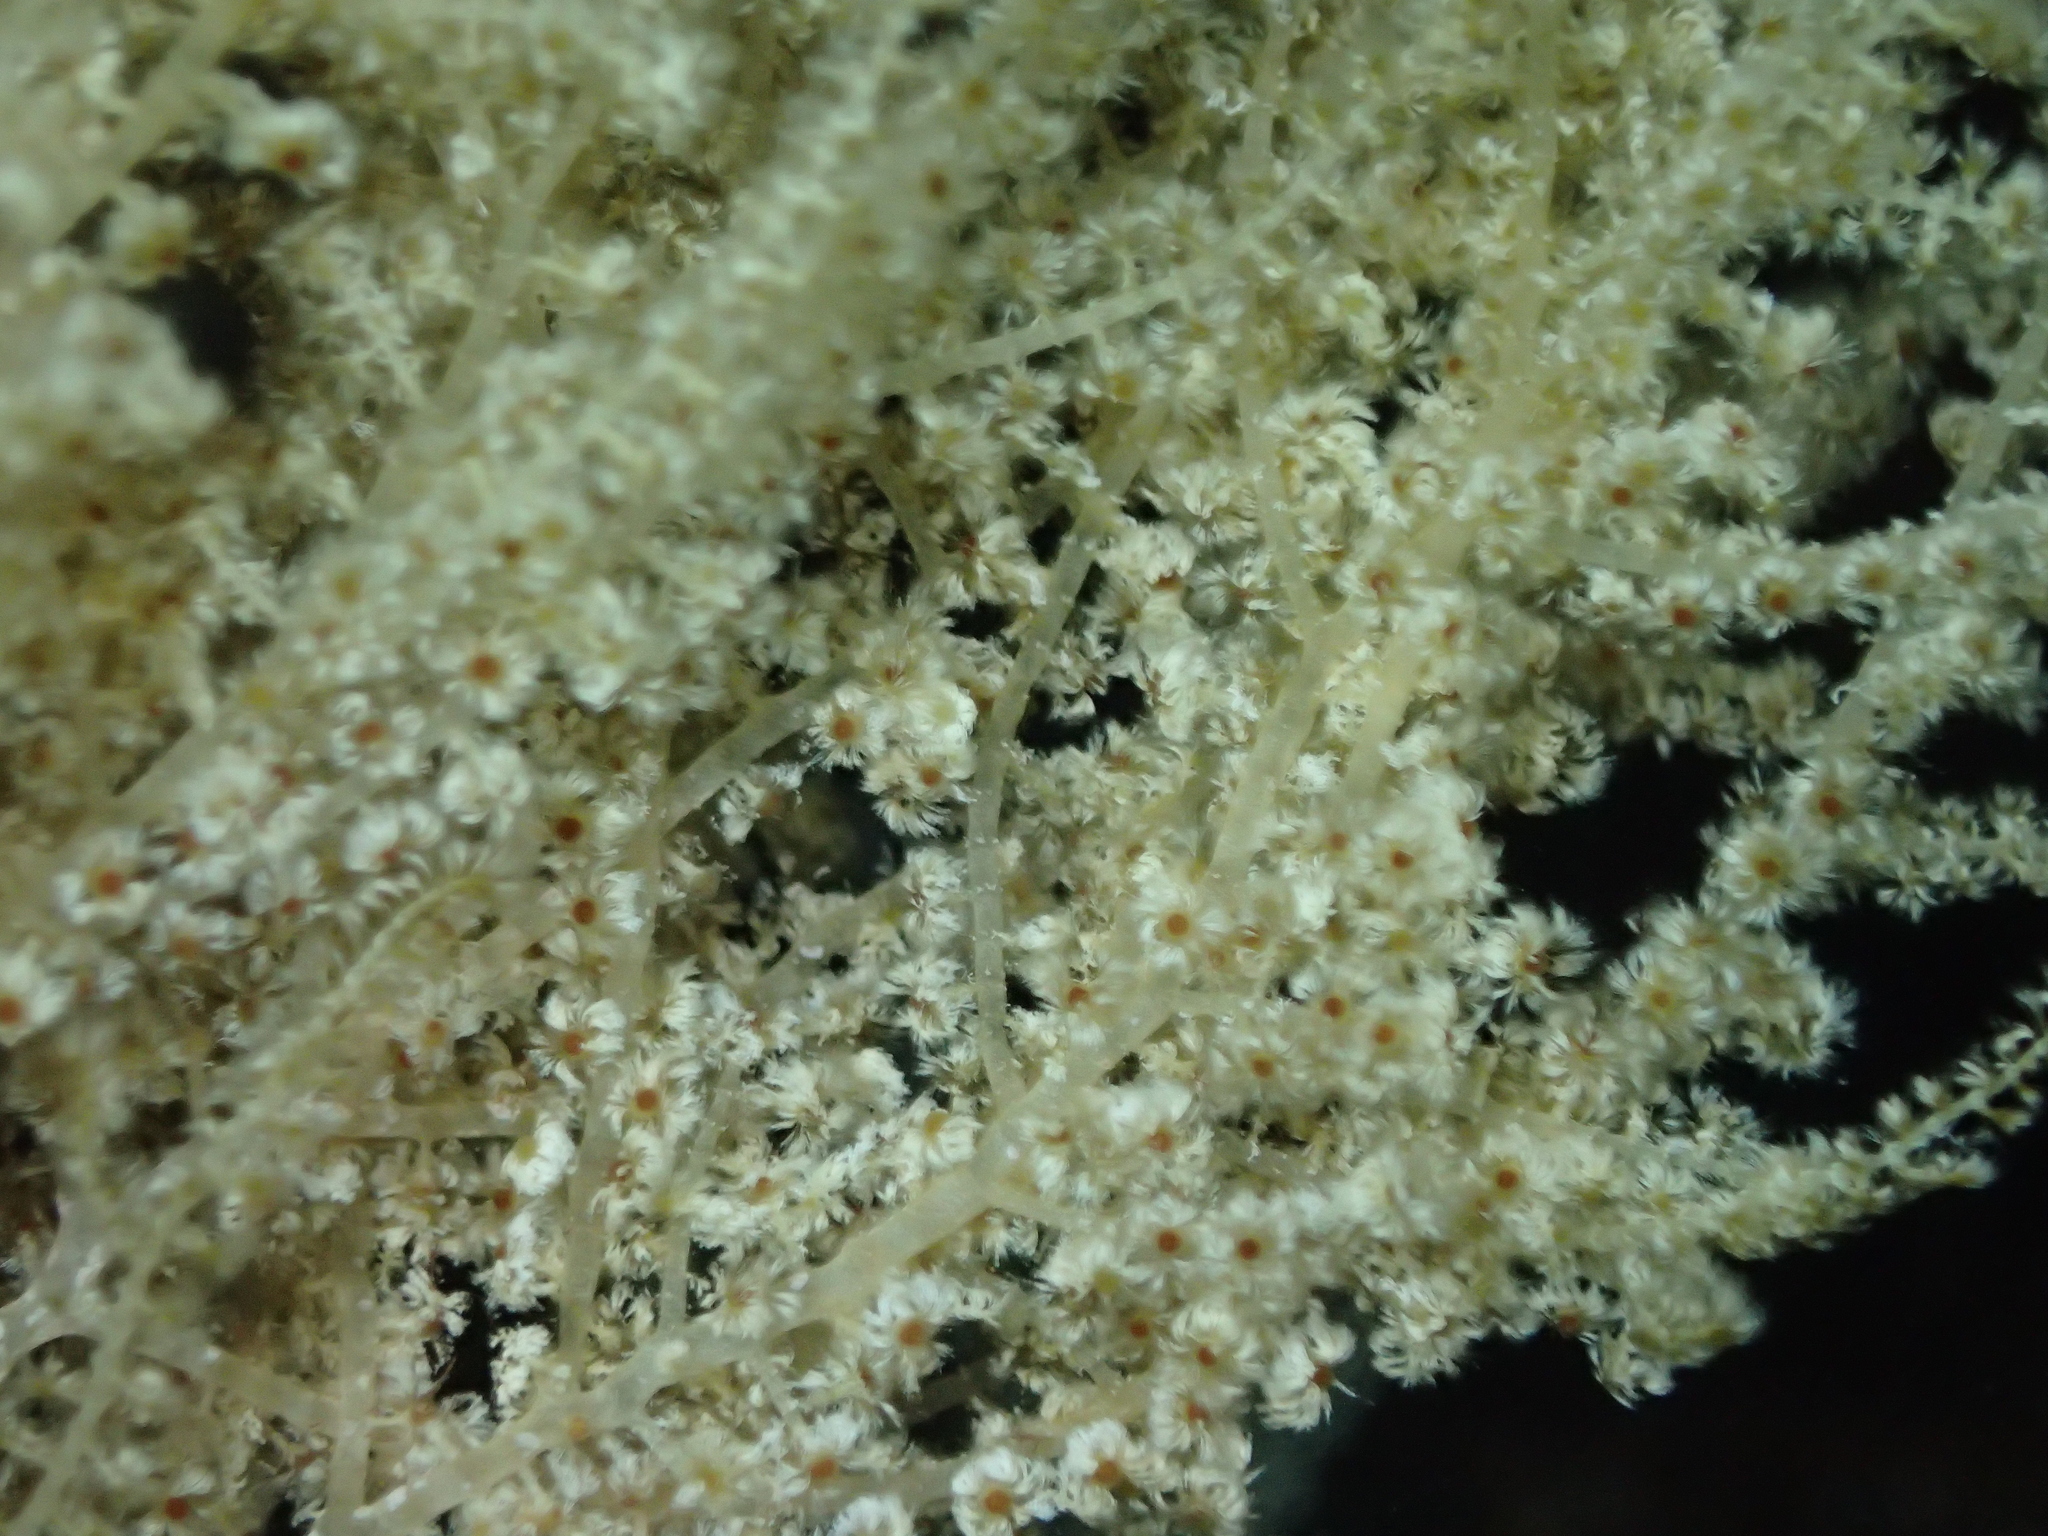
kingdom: Plantae
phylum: Rhodophyta
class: Florideophyceae
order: Ceramiales
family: Wrangeliaceae
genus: Wrangelia
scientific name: Wrangelia penicillata
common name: Pink bush algae
